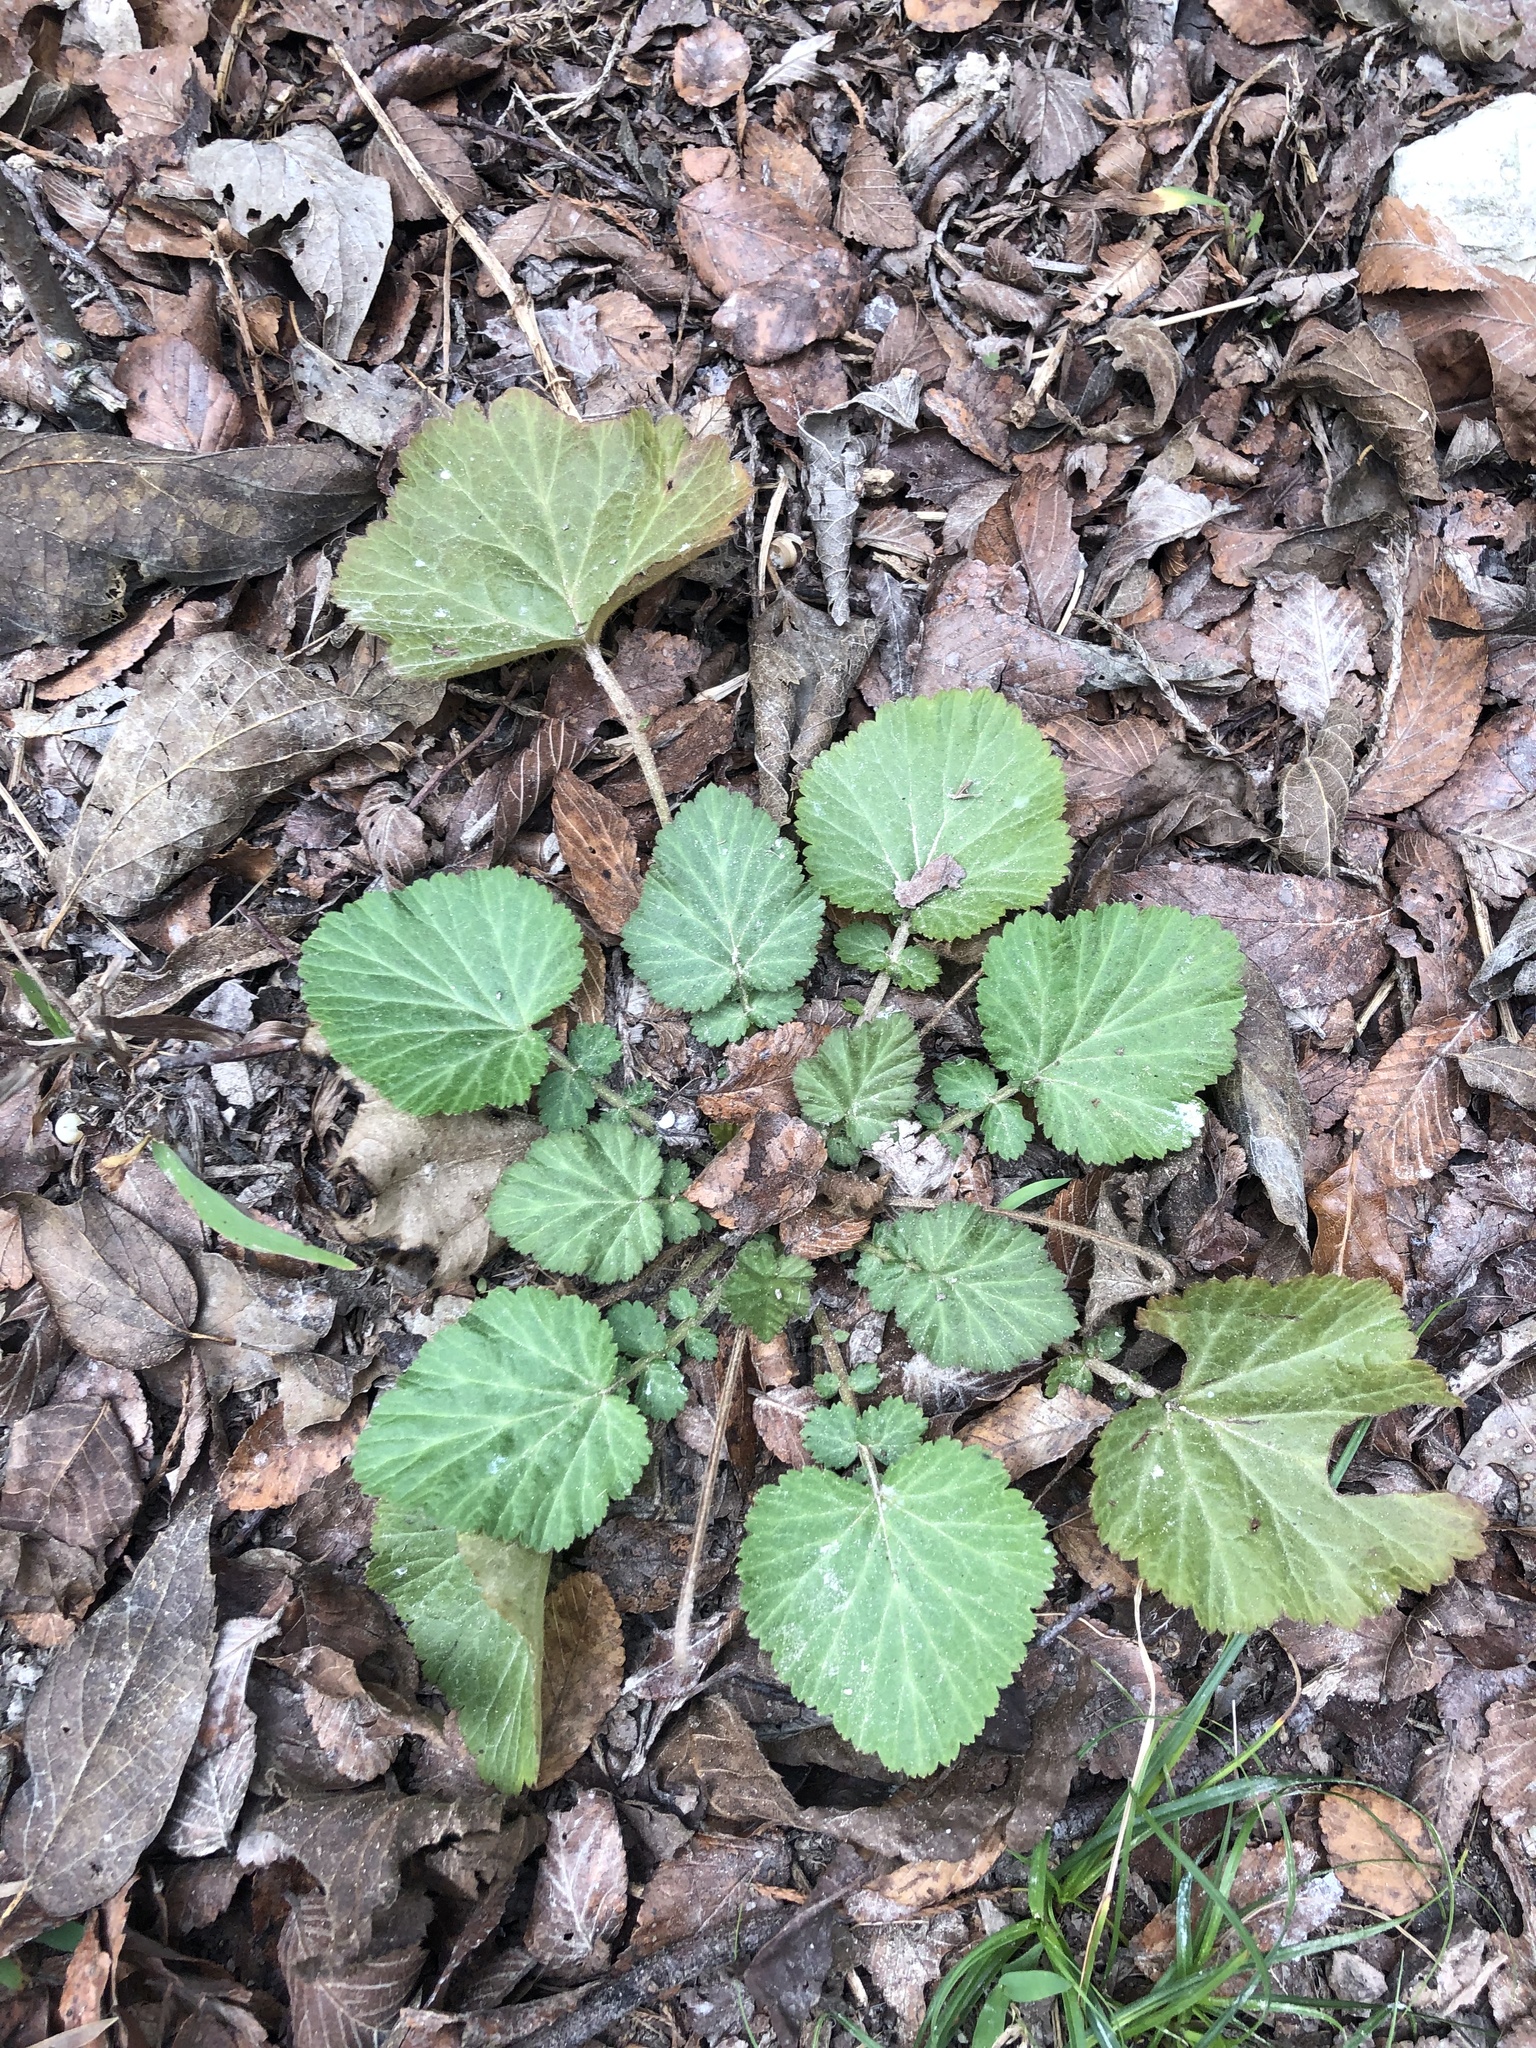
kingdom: Plantae
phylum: Tracheophyta
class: Magnoliopsida
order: Rosales
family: Rosaceae
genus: Geum
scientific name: Geum canadense
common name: White avens
